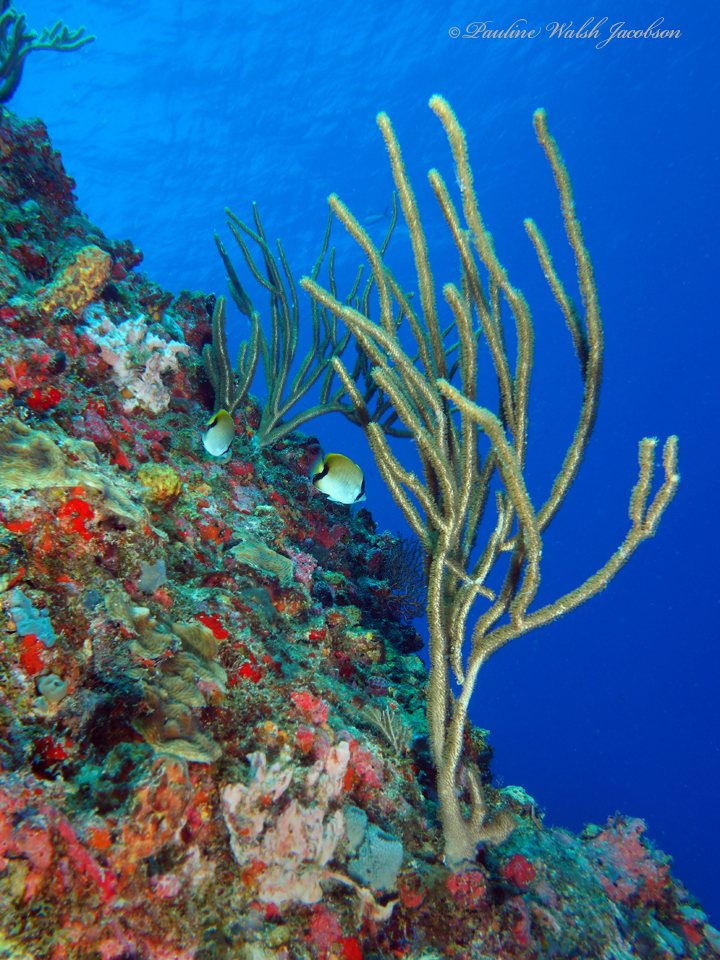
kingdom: Animalia
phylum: Chordata
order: Perciformes
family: Chaetodontidae
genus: Chaetodon
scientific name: Chaetodon sedentarius
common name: Reef butterflyfish
